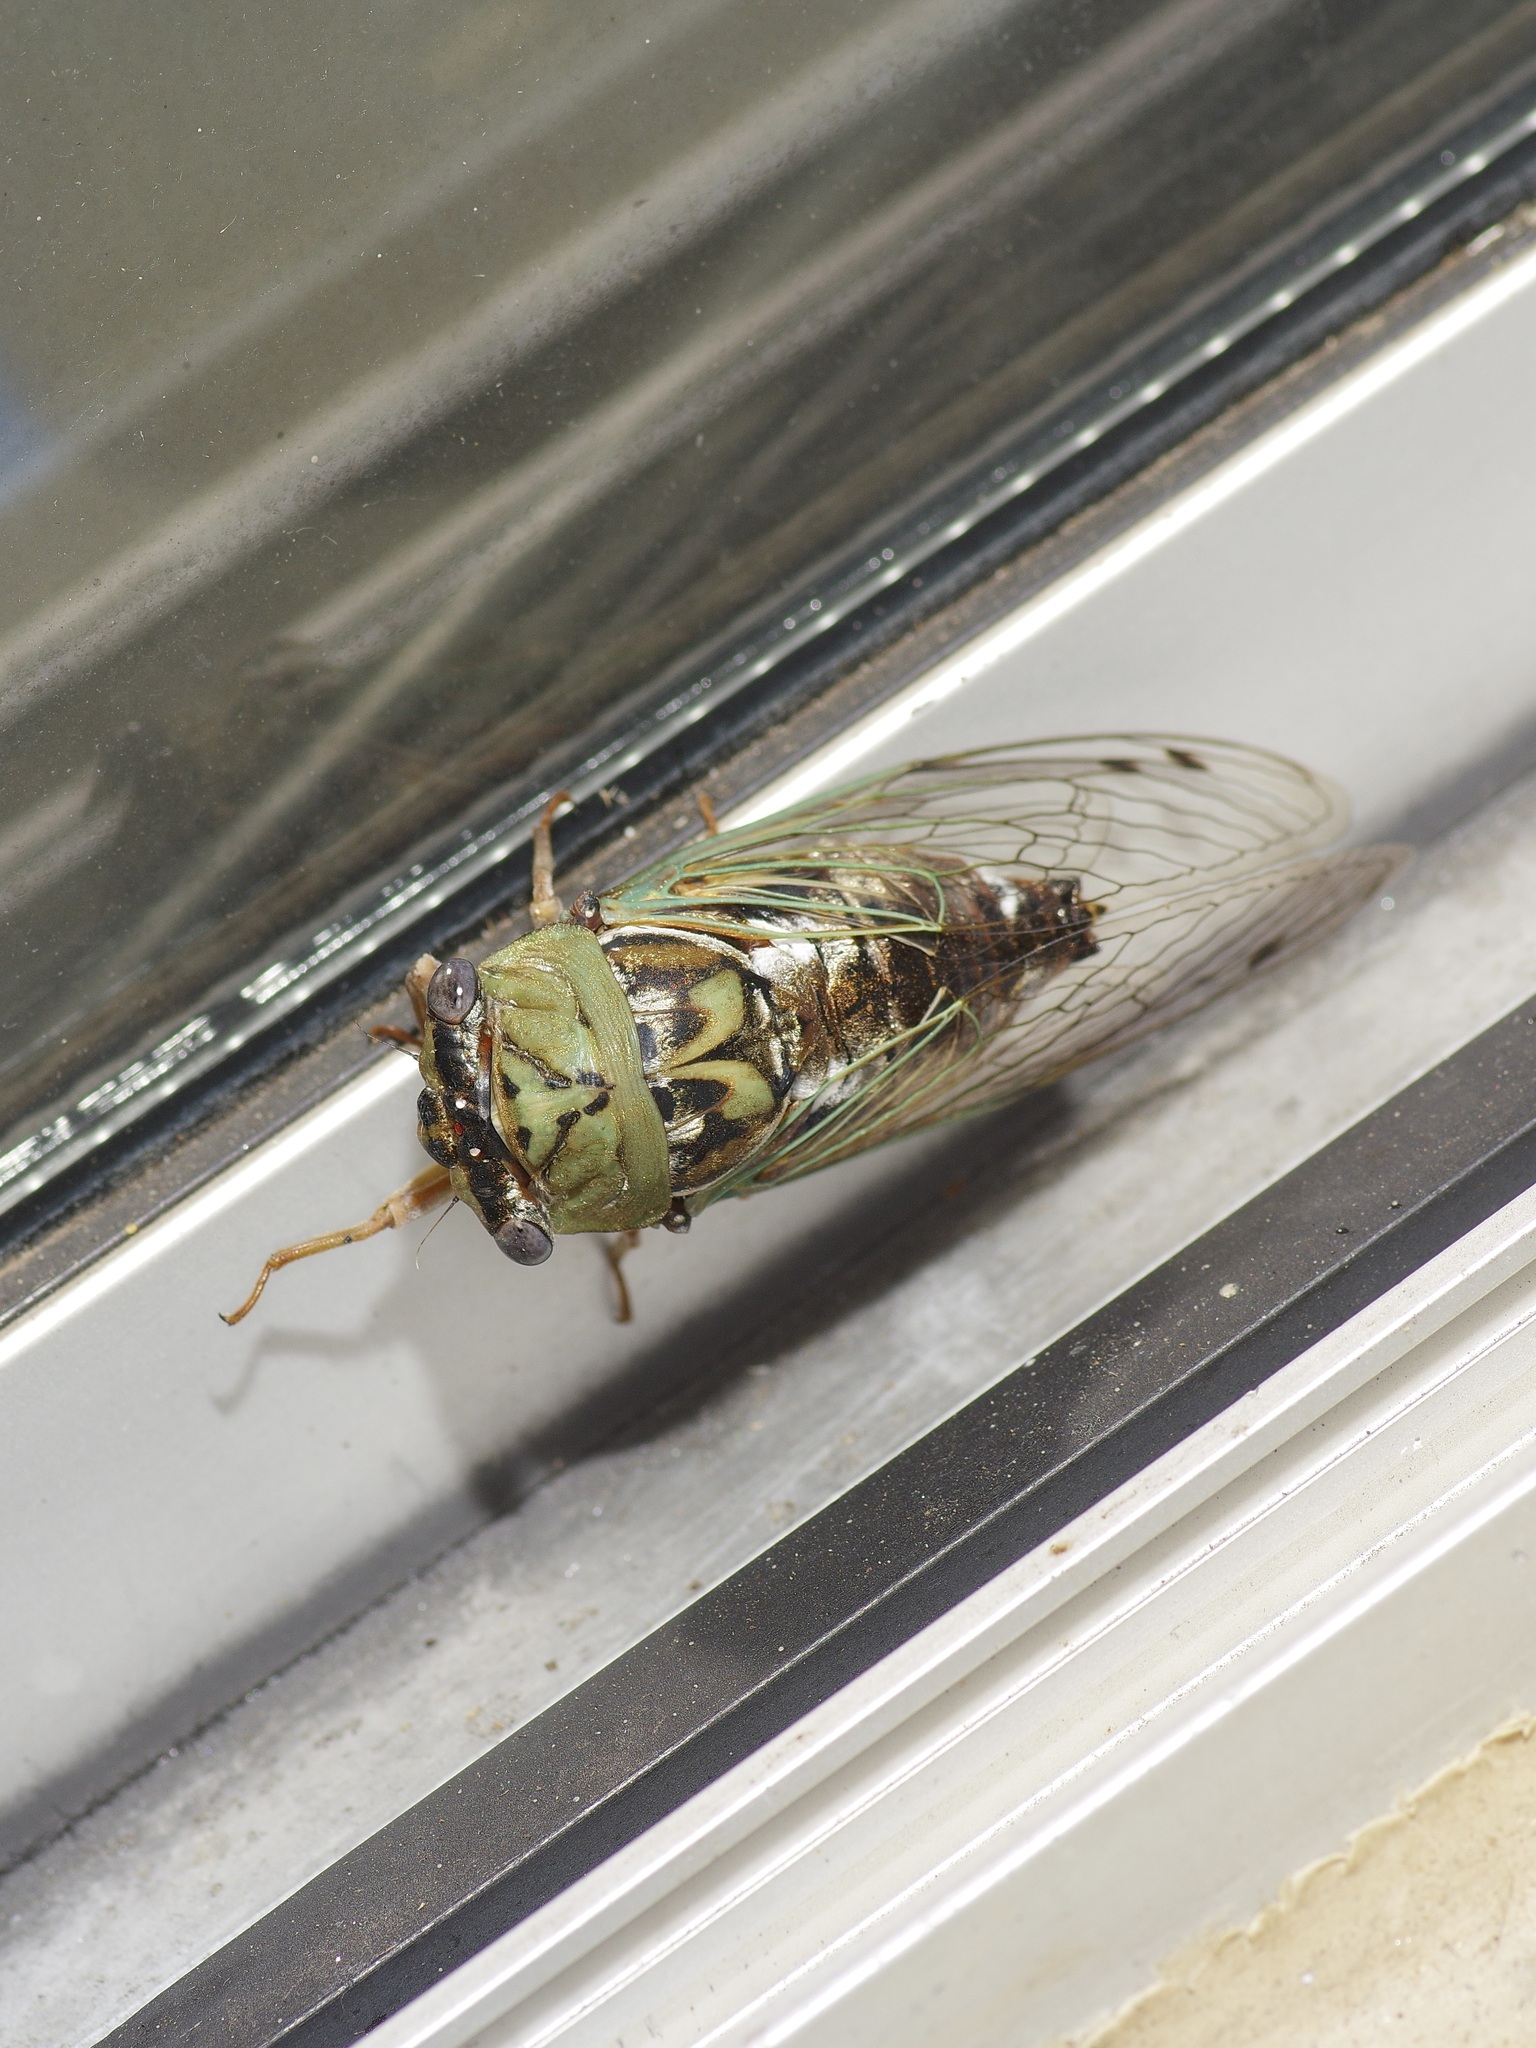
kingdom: Animalia
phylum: Arthropoda
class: Insecta
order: Hemiptera
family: Cicadidae
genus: Megatibicen
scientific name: Megatibicen resh
